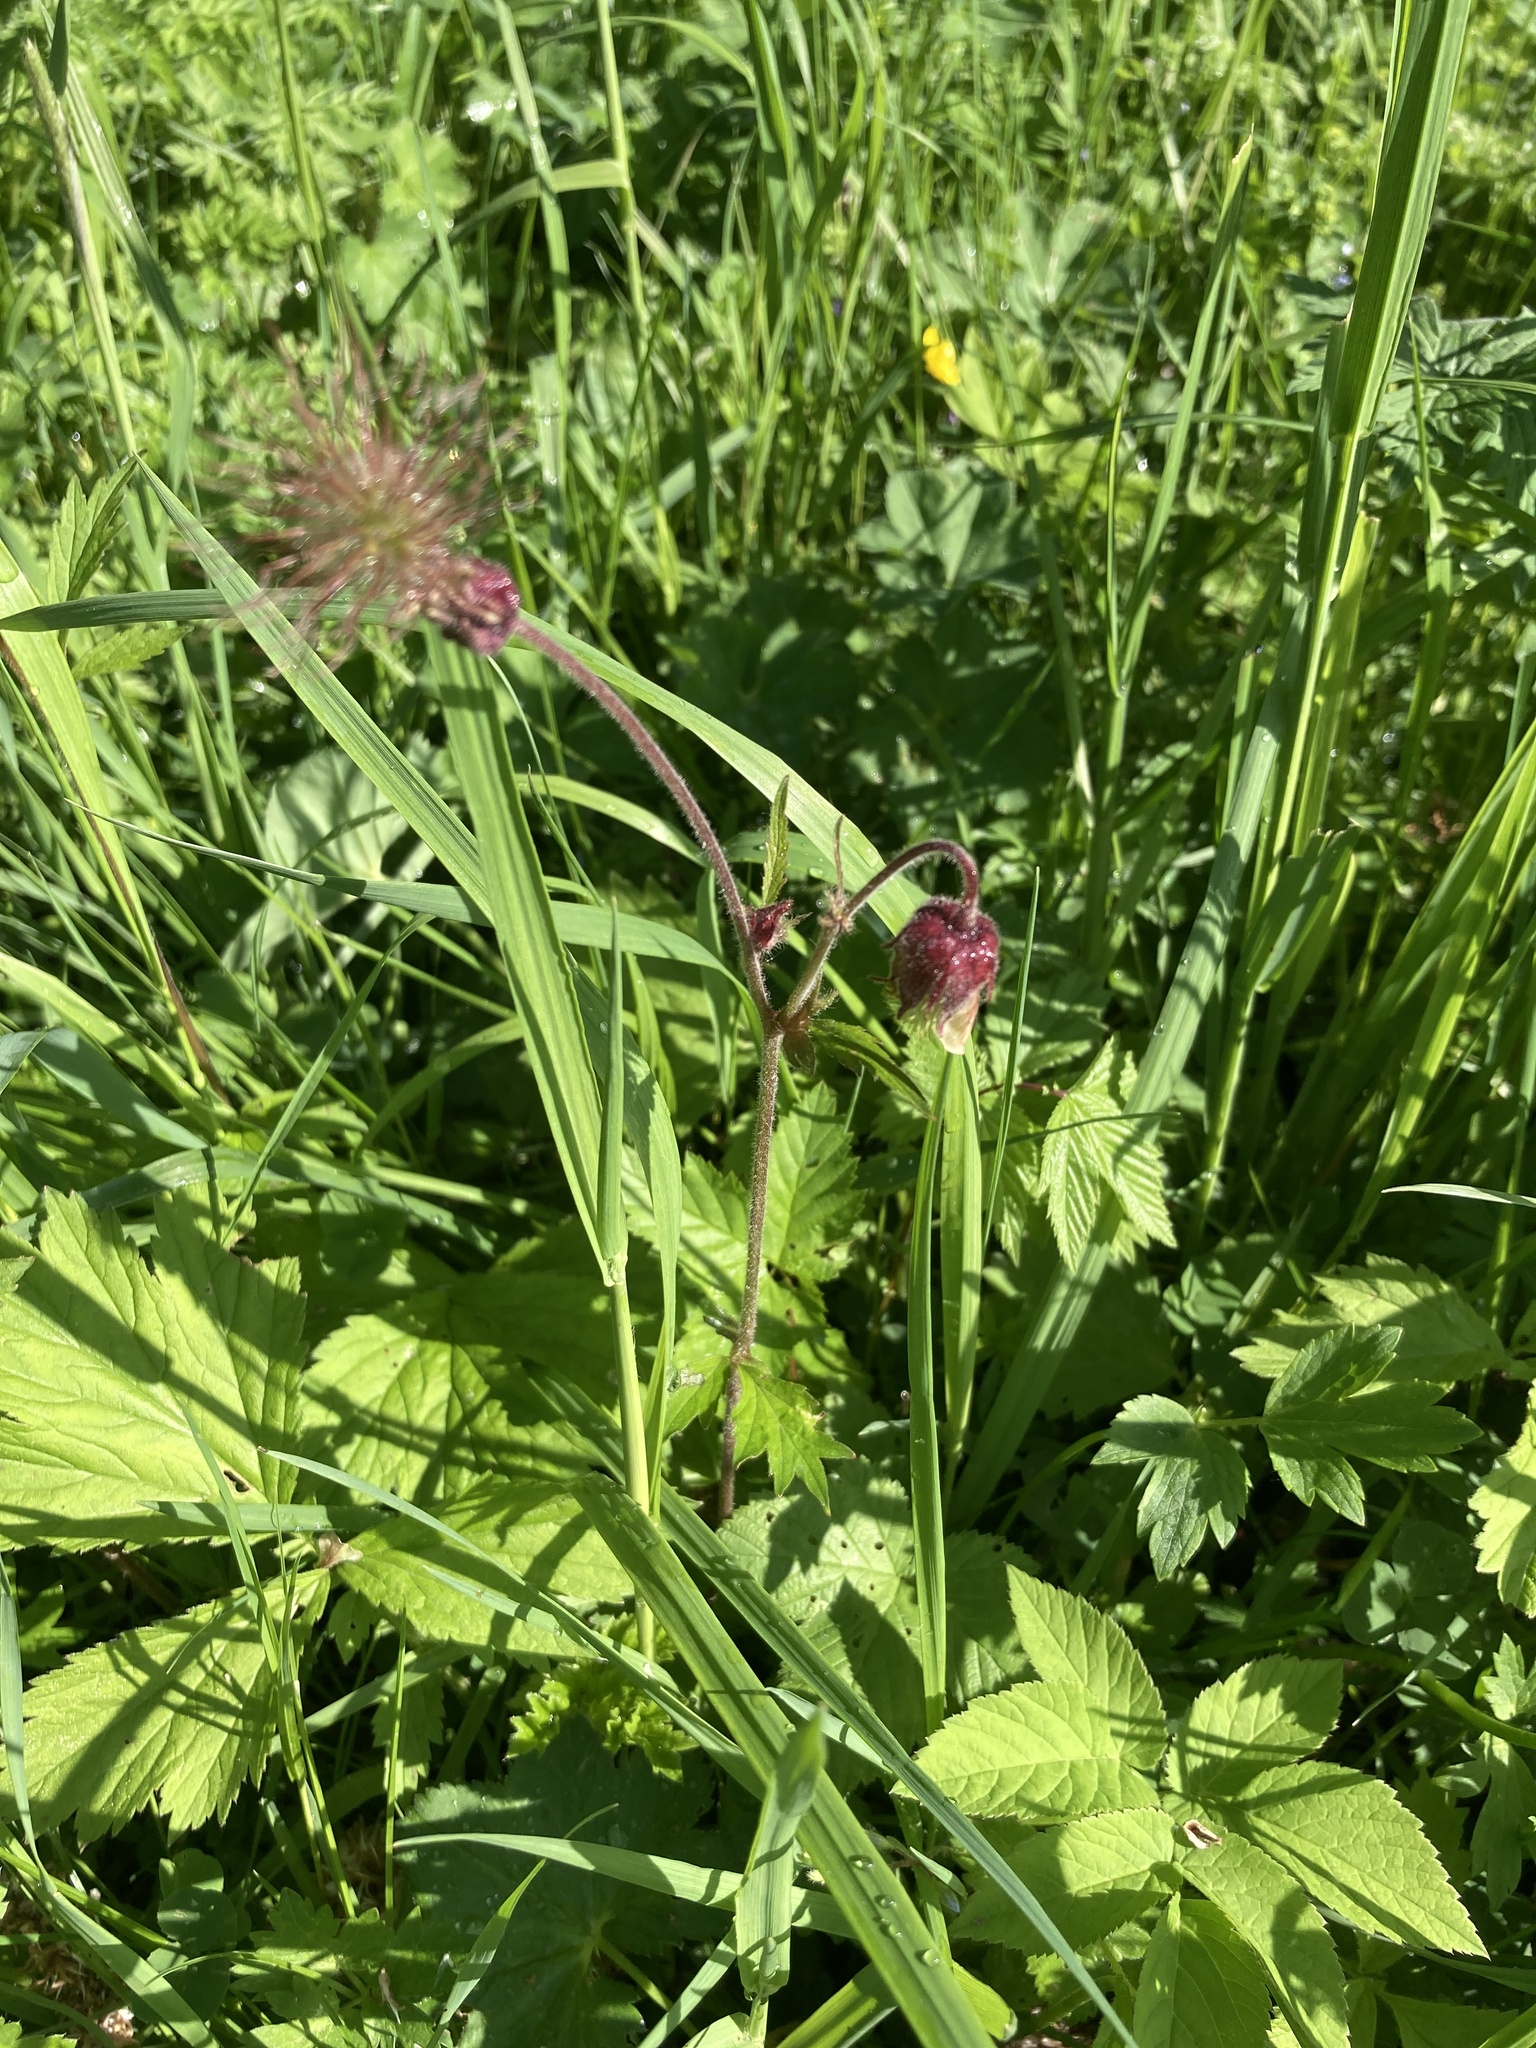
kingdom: Plantae
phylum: Tracheophyta
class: Magnoliopsida
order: Rosales
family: Rosaceae
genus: Geum
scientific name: Geum rivale
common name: Water avens
